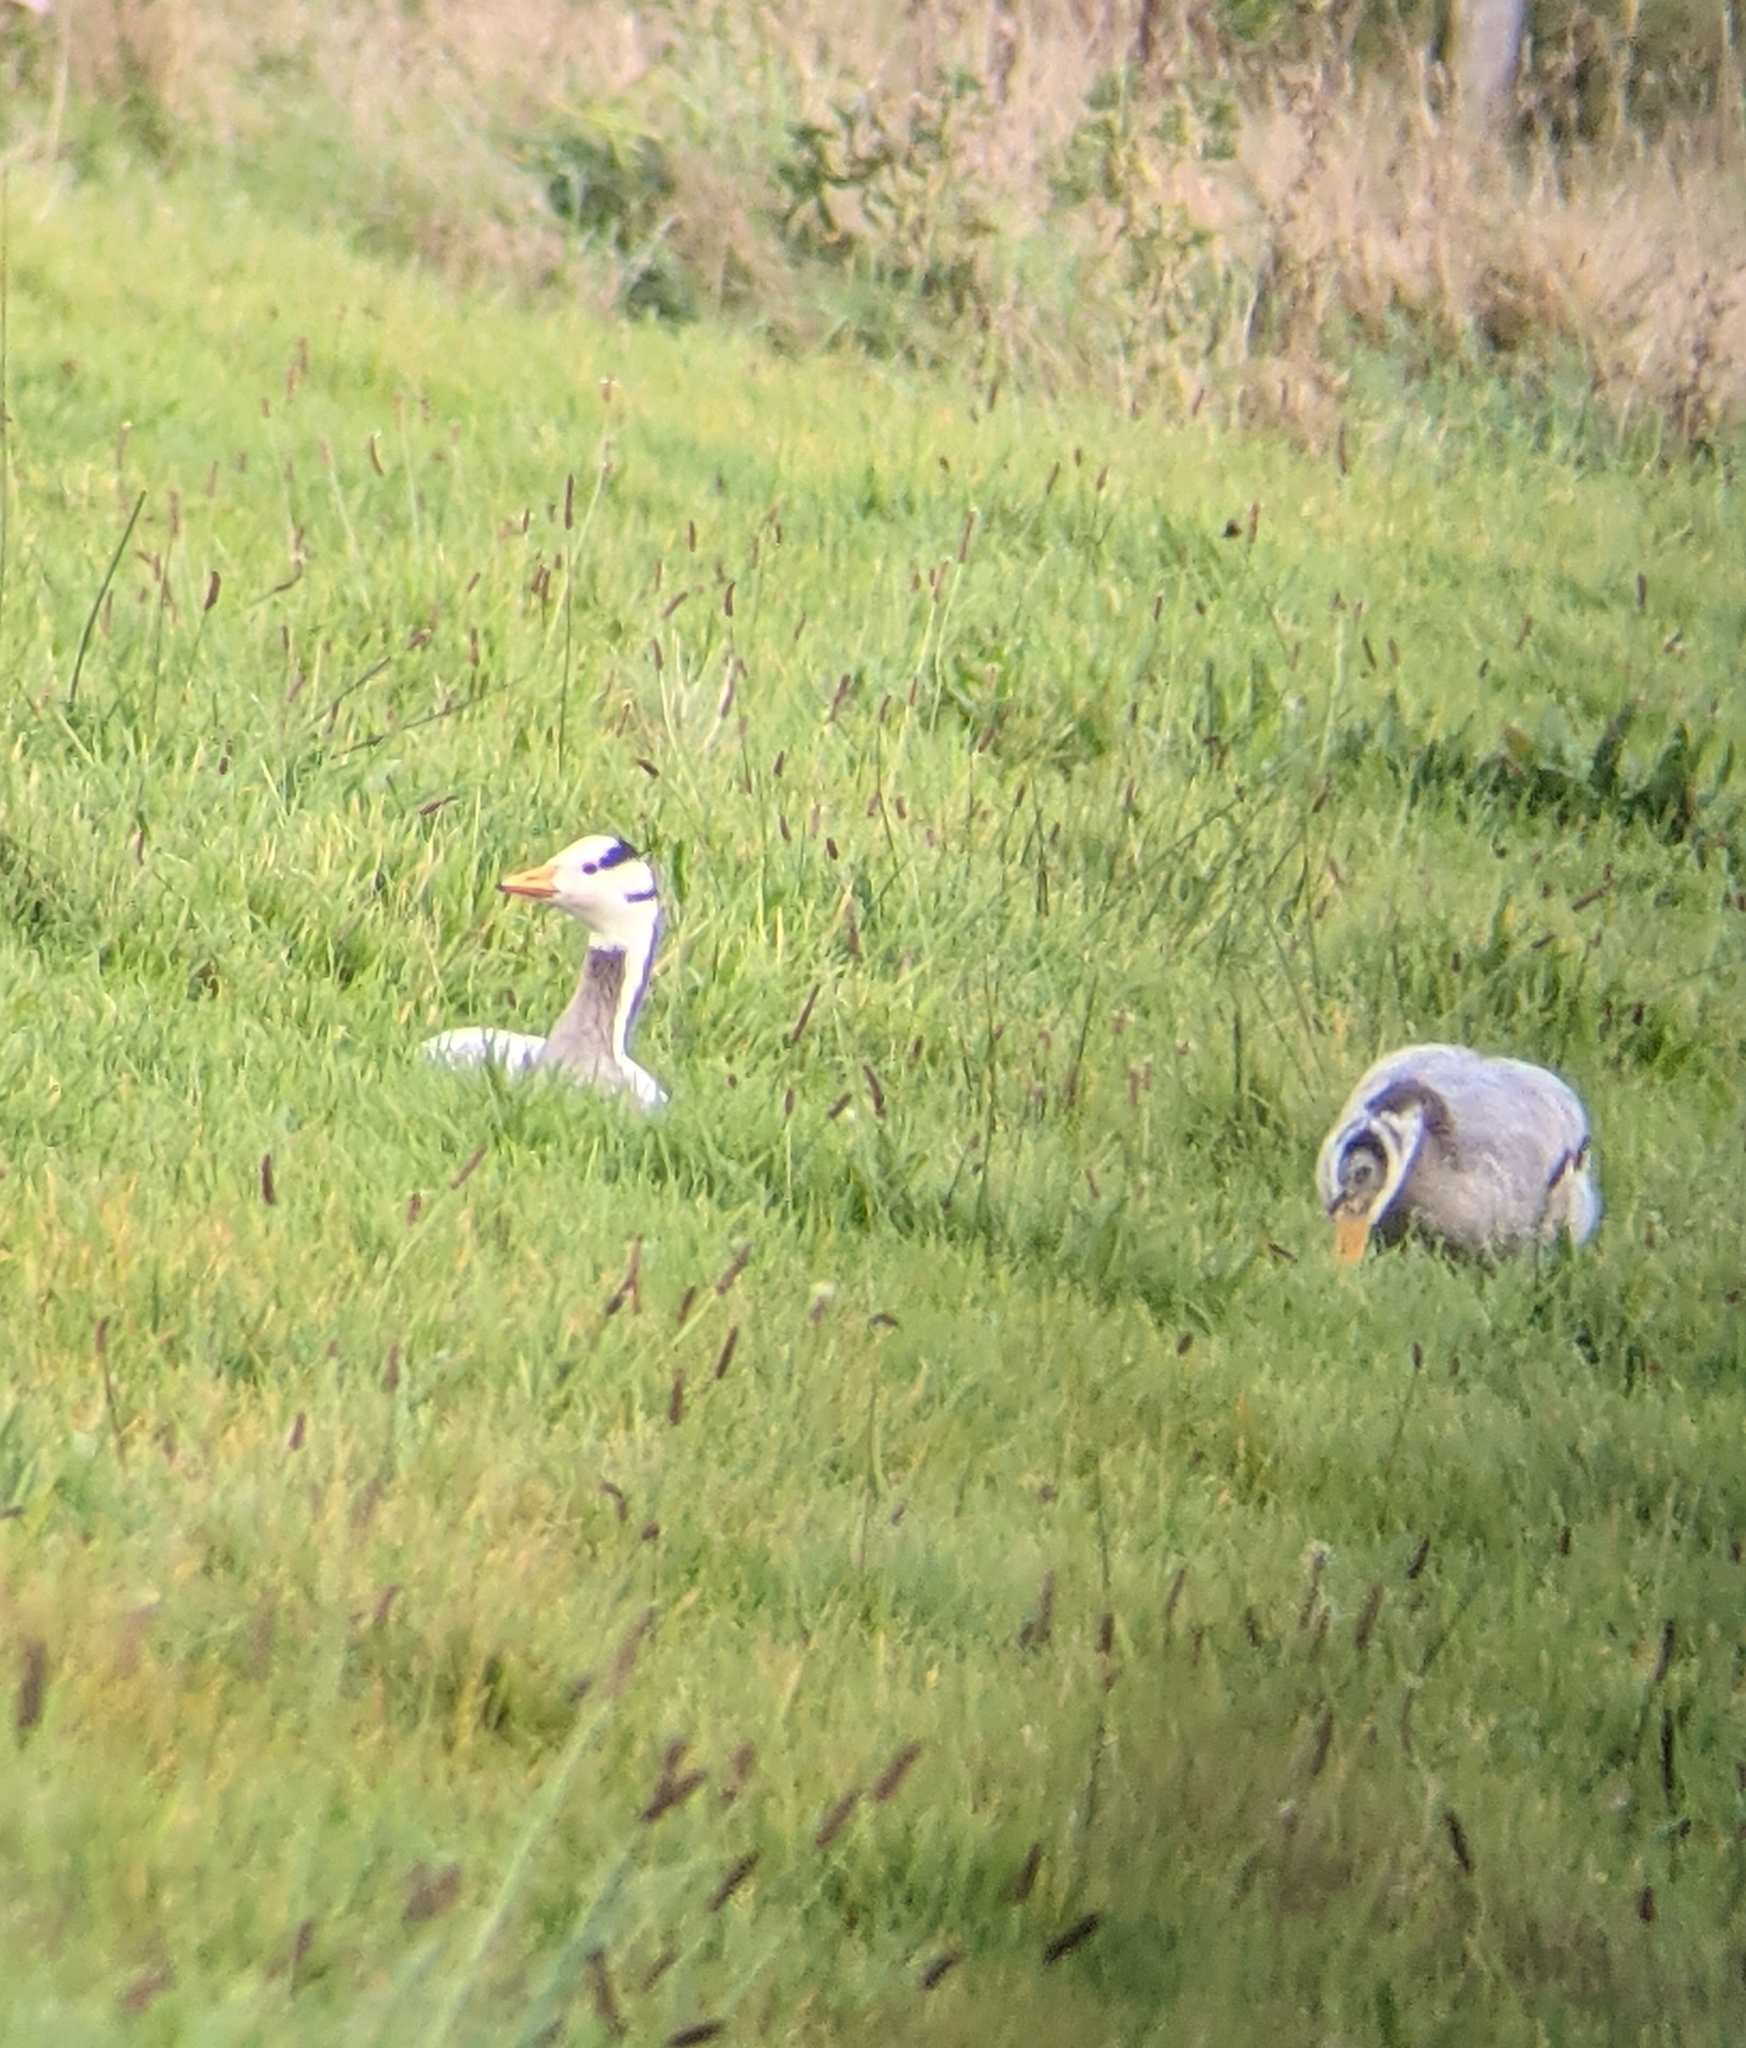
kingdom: Animalia
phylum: Chordata
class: Aves
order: Anseriformes
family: Anatidae
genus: Anser
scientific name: Anser indicus
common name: Bar-headed goose
